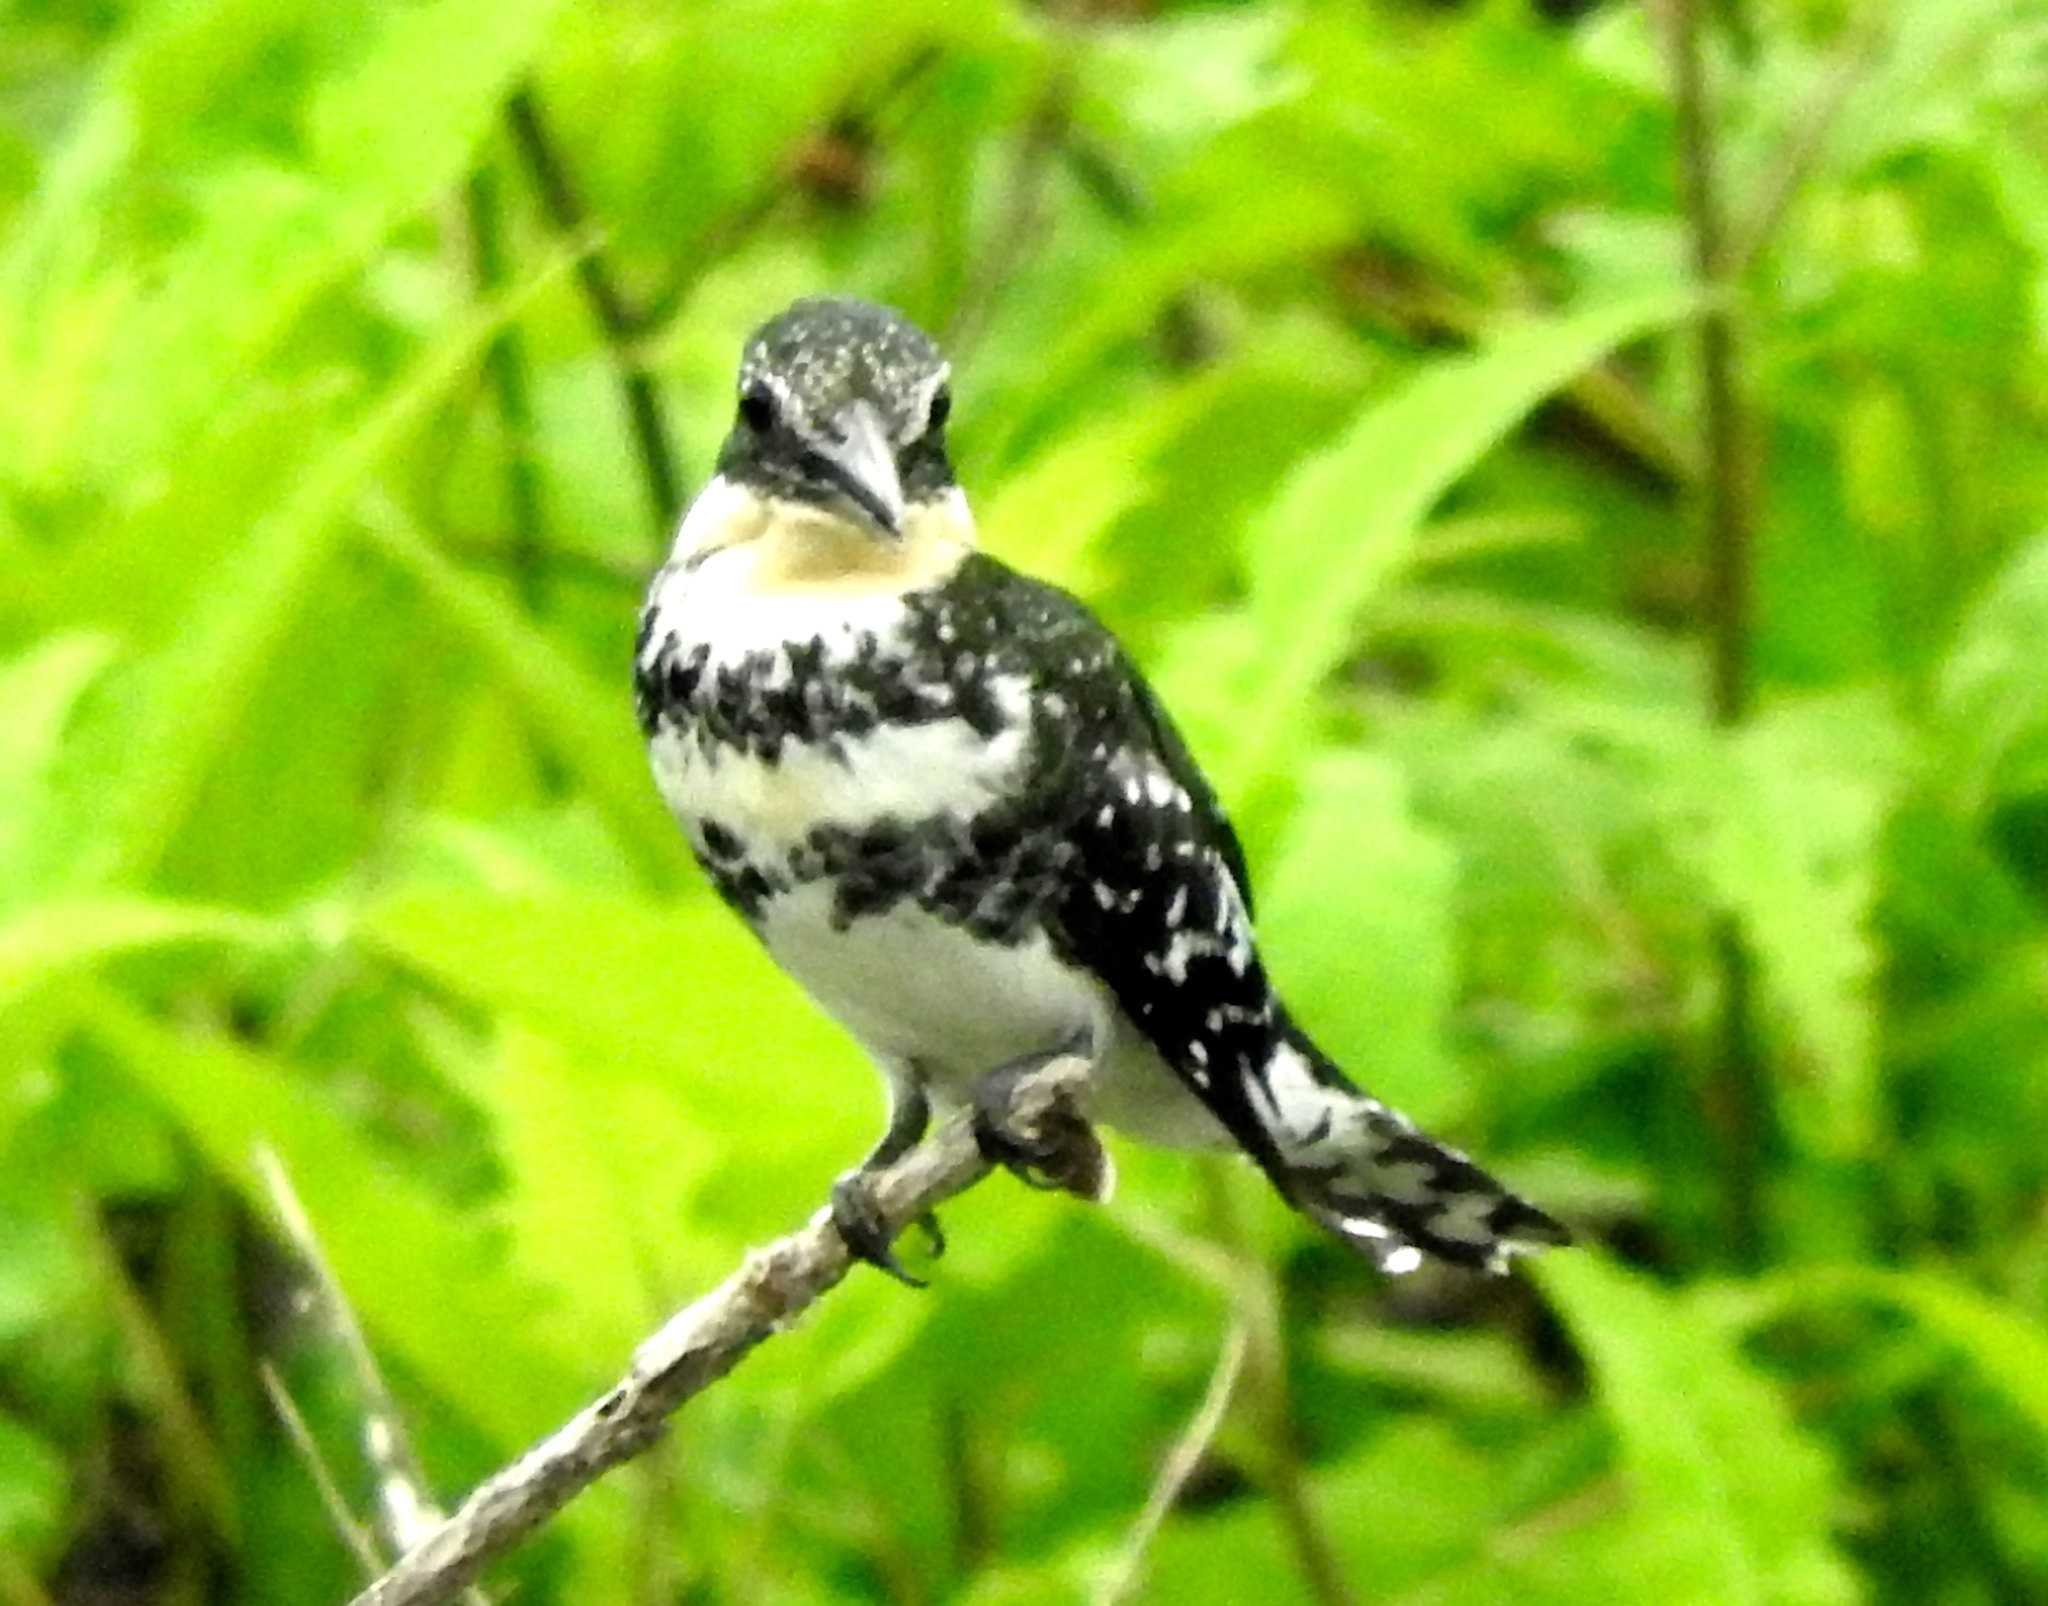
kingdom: Animalia
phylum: Chordata
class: Aves
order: Coraciiformes
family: Alcedinidae
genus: Chloroceryle
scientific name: Chloroceryle americana
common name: Green kingfisher
